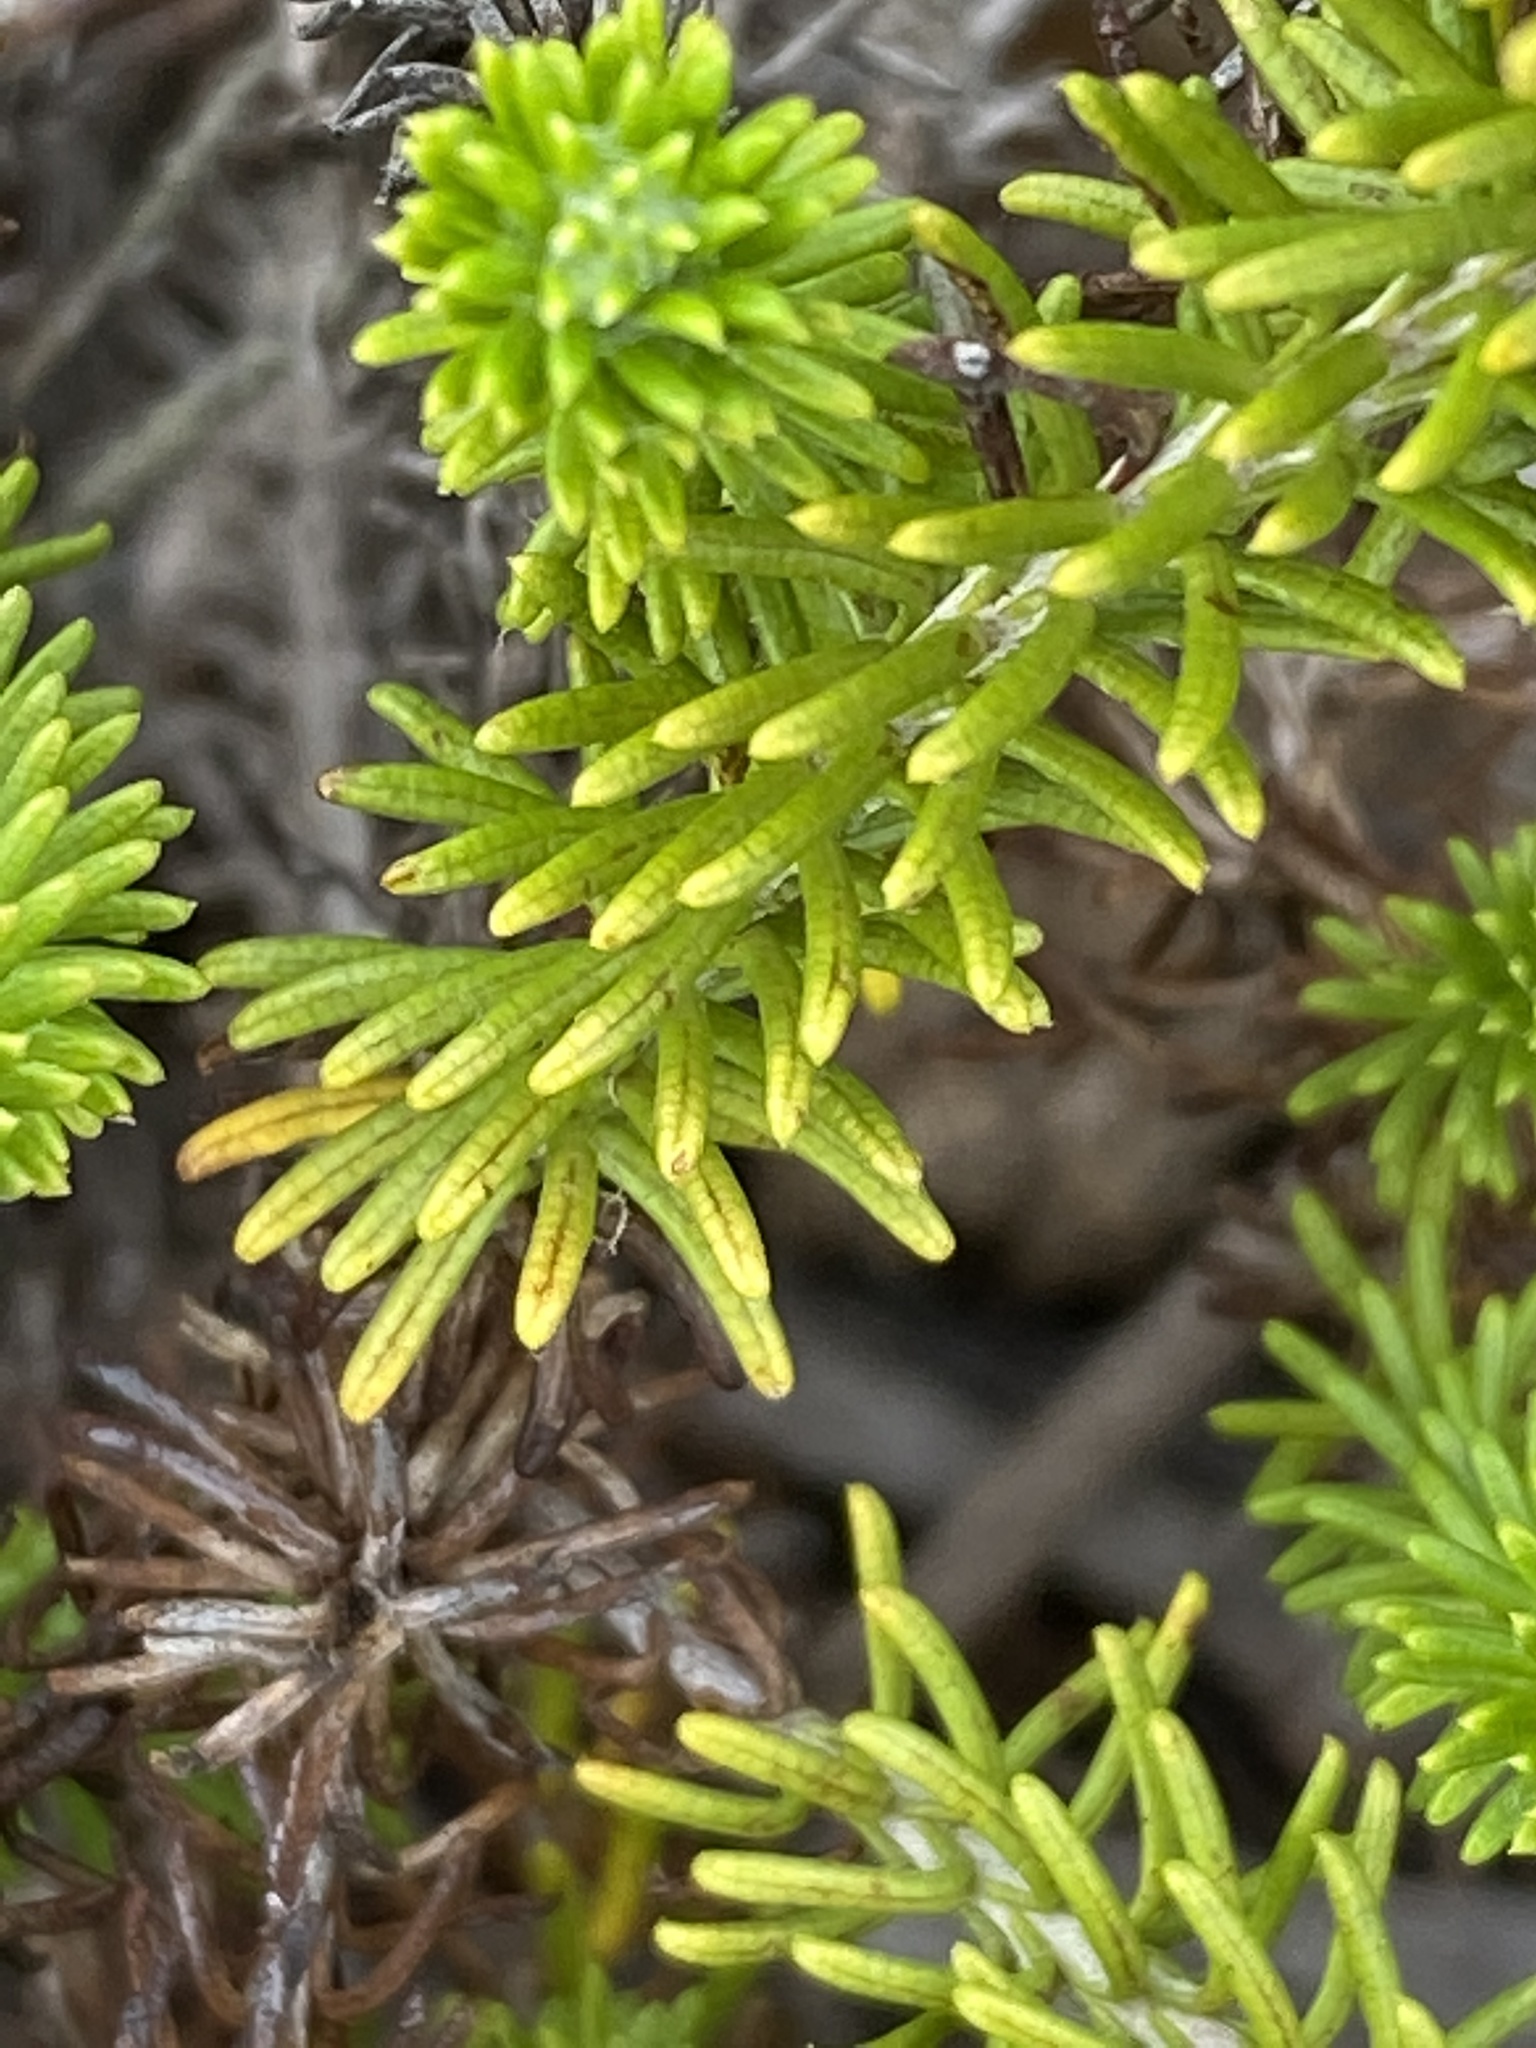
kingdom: Plantae
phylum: Tracheophyta
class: Magnoliopsida
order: Asterales
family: Asteraceae
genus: Helichrysum
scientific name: Helichrysum teretifolium
